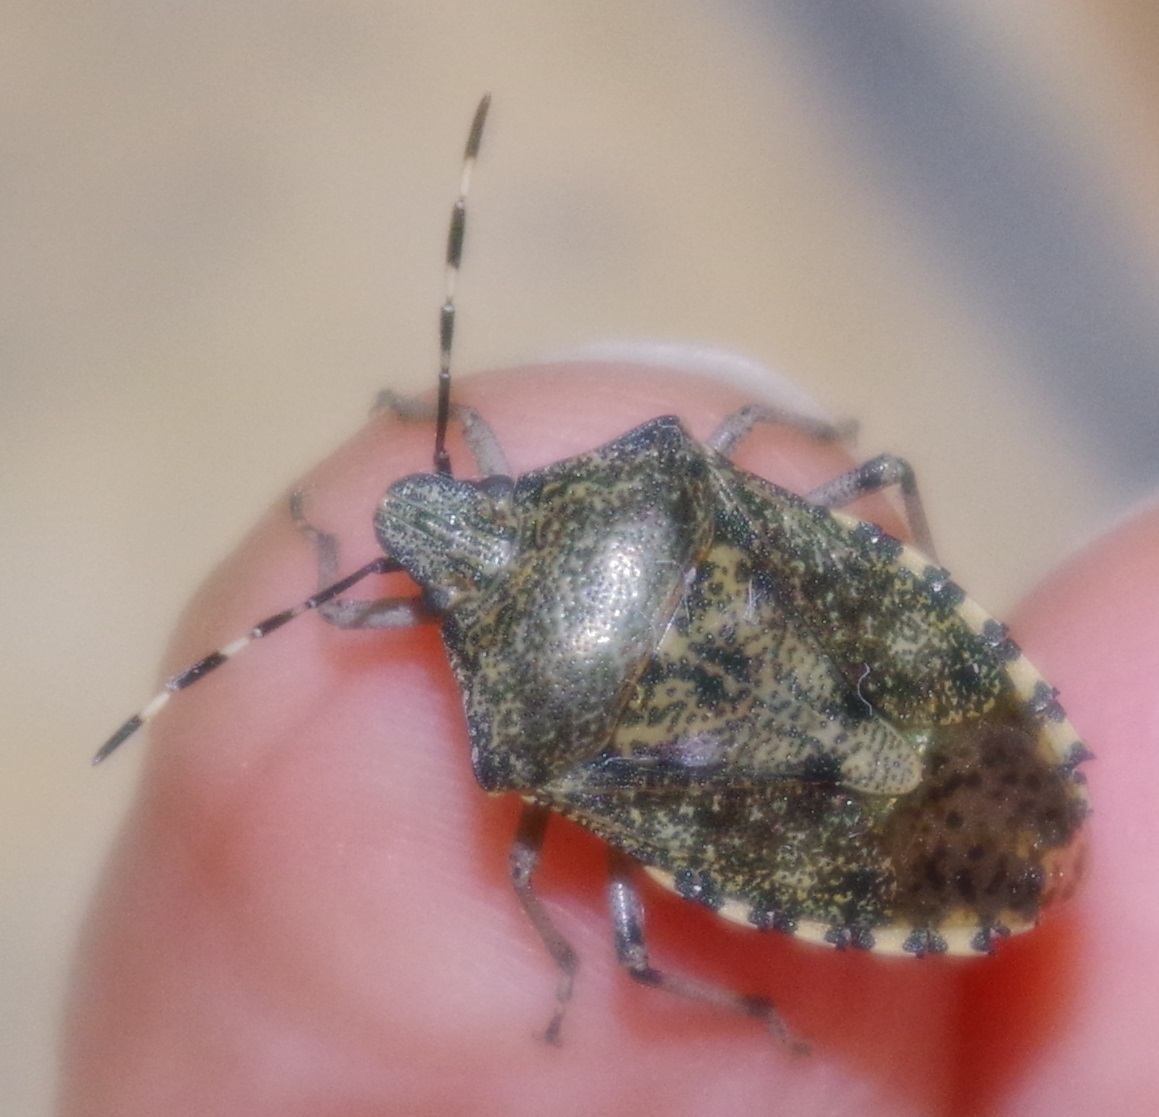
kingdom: Animalia
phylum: Arthropoda
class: Insecta
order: Hemiptera
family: Pentatomidae
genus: Rhaphigaster
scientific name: Rhaphigaster nebulosa
